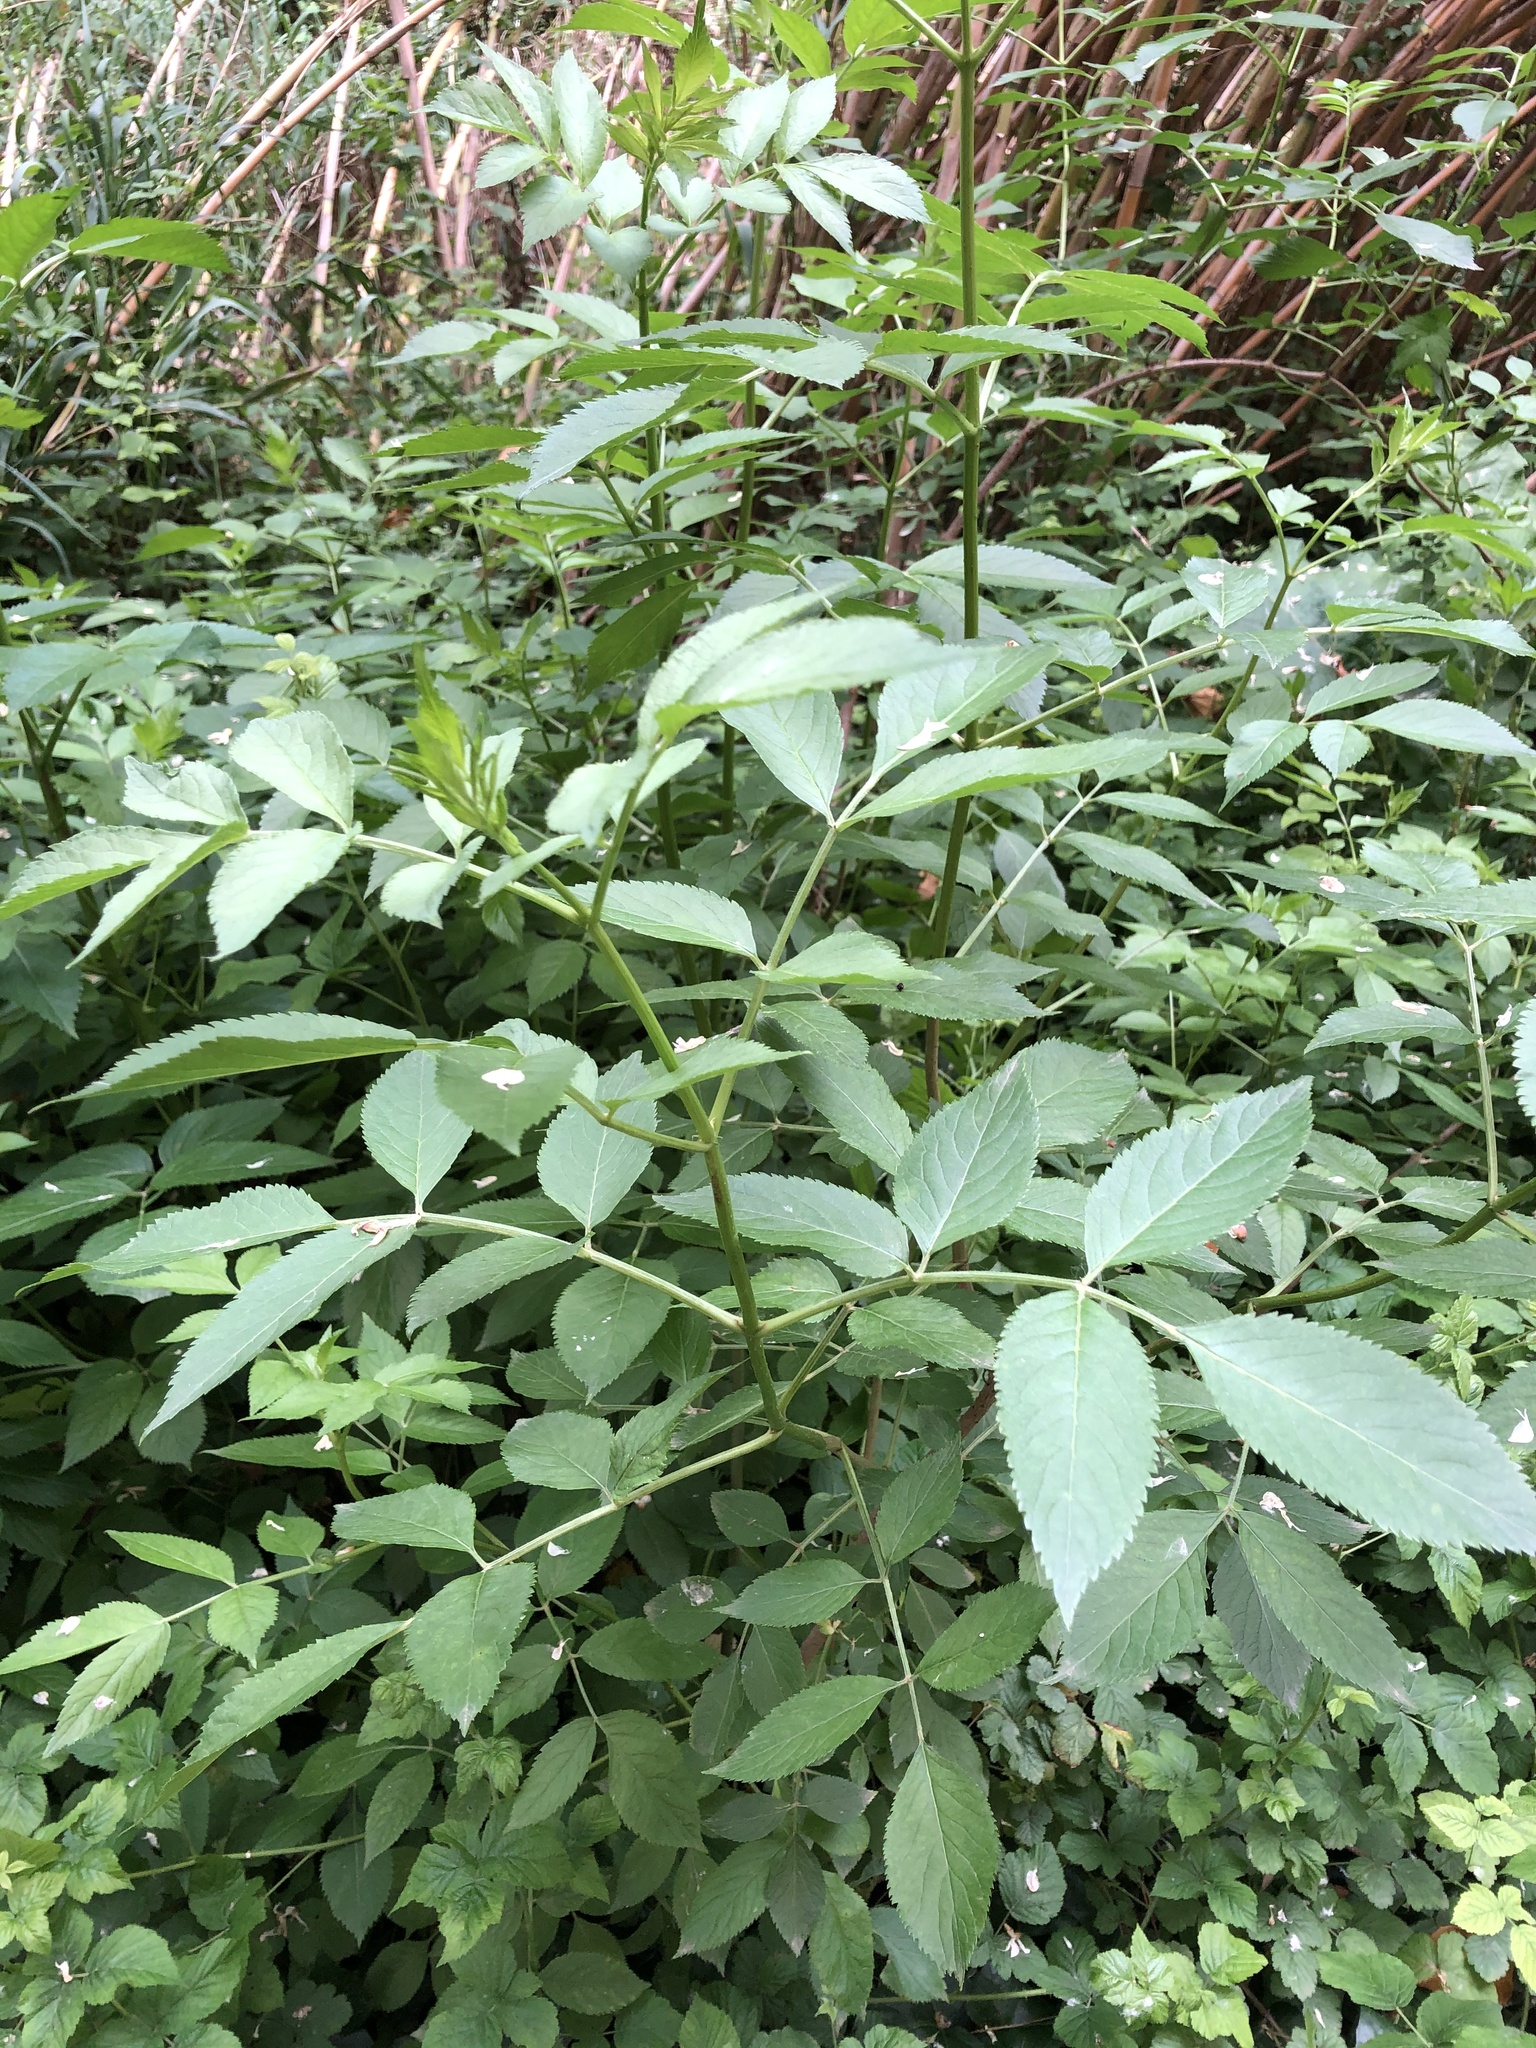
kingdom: Plantae
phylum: Tracheophyta
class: Magnoliopsida
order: Dipsacales
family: Viburnaceae
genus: Sambucus
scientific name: Sambucus nigra
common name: Elder
